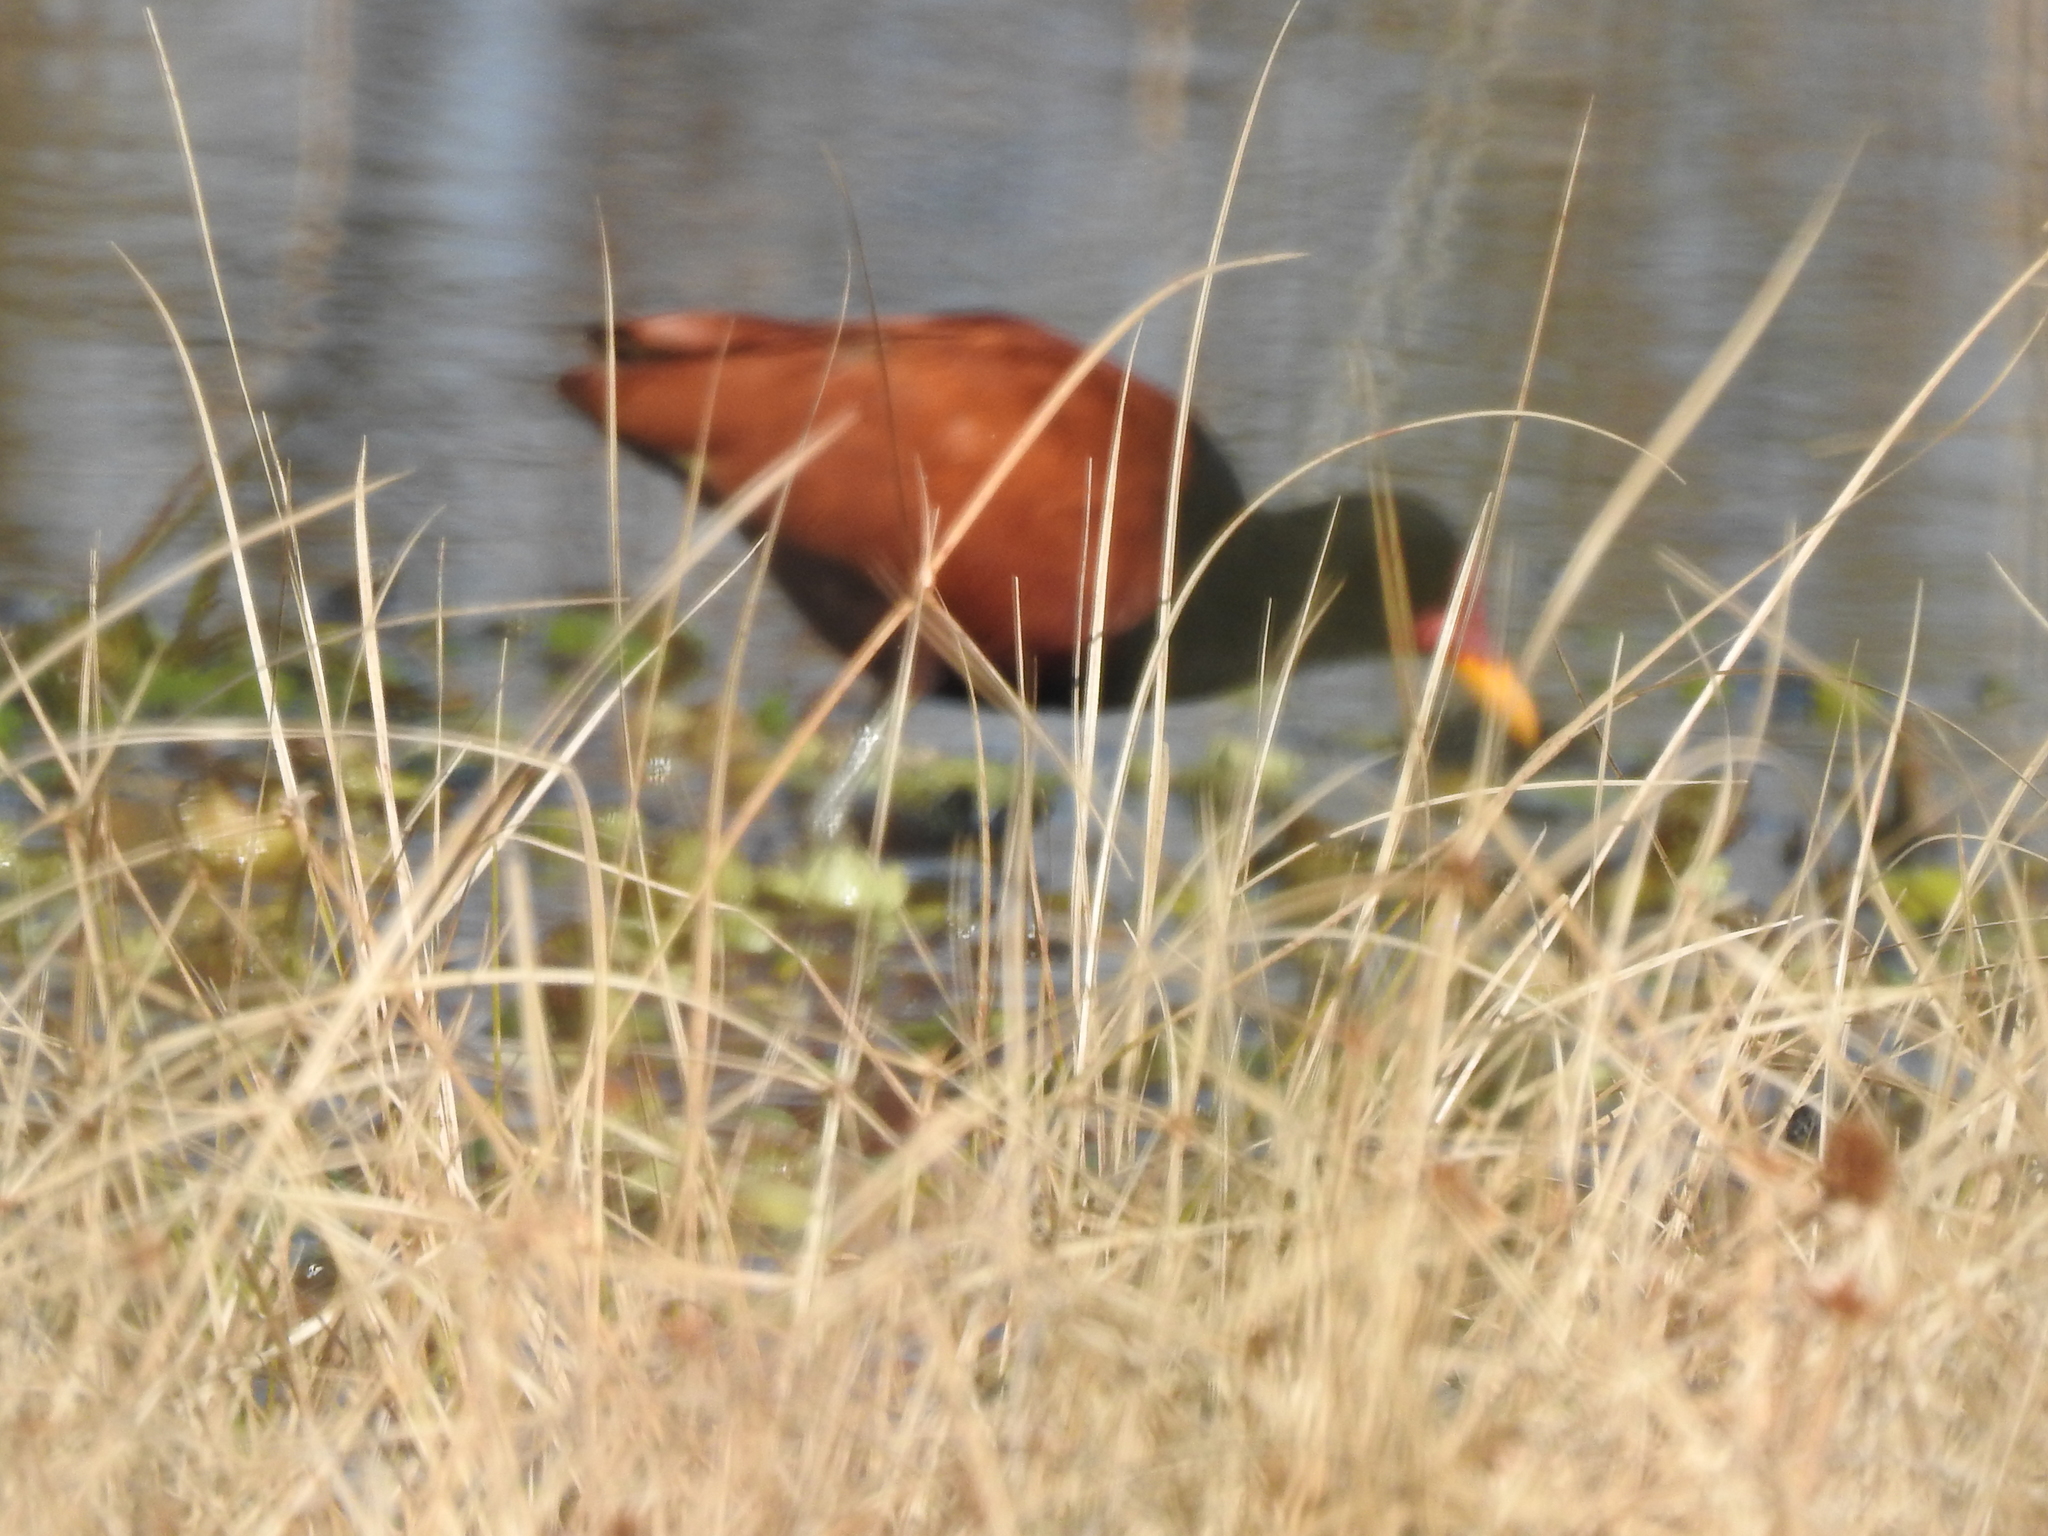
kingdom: Animalia
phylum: Chordata
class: Aves
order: Charadriiformes
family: Jacanidae
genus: Jacana
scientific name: Jacana jacana
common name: Wattled jacana
